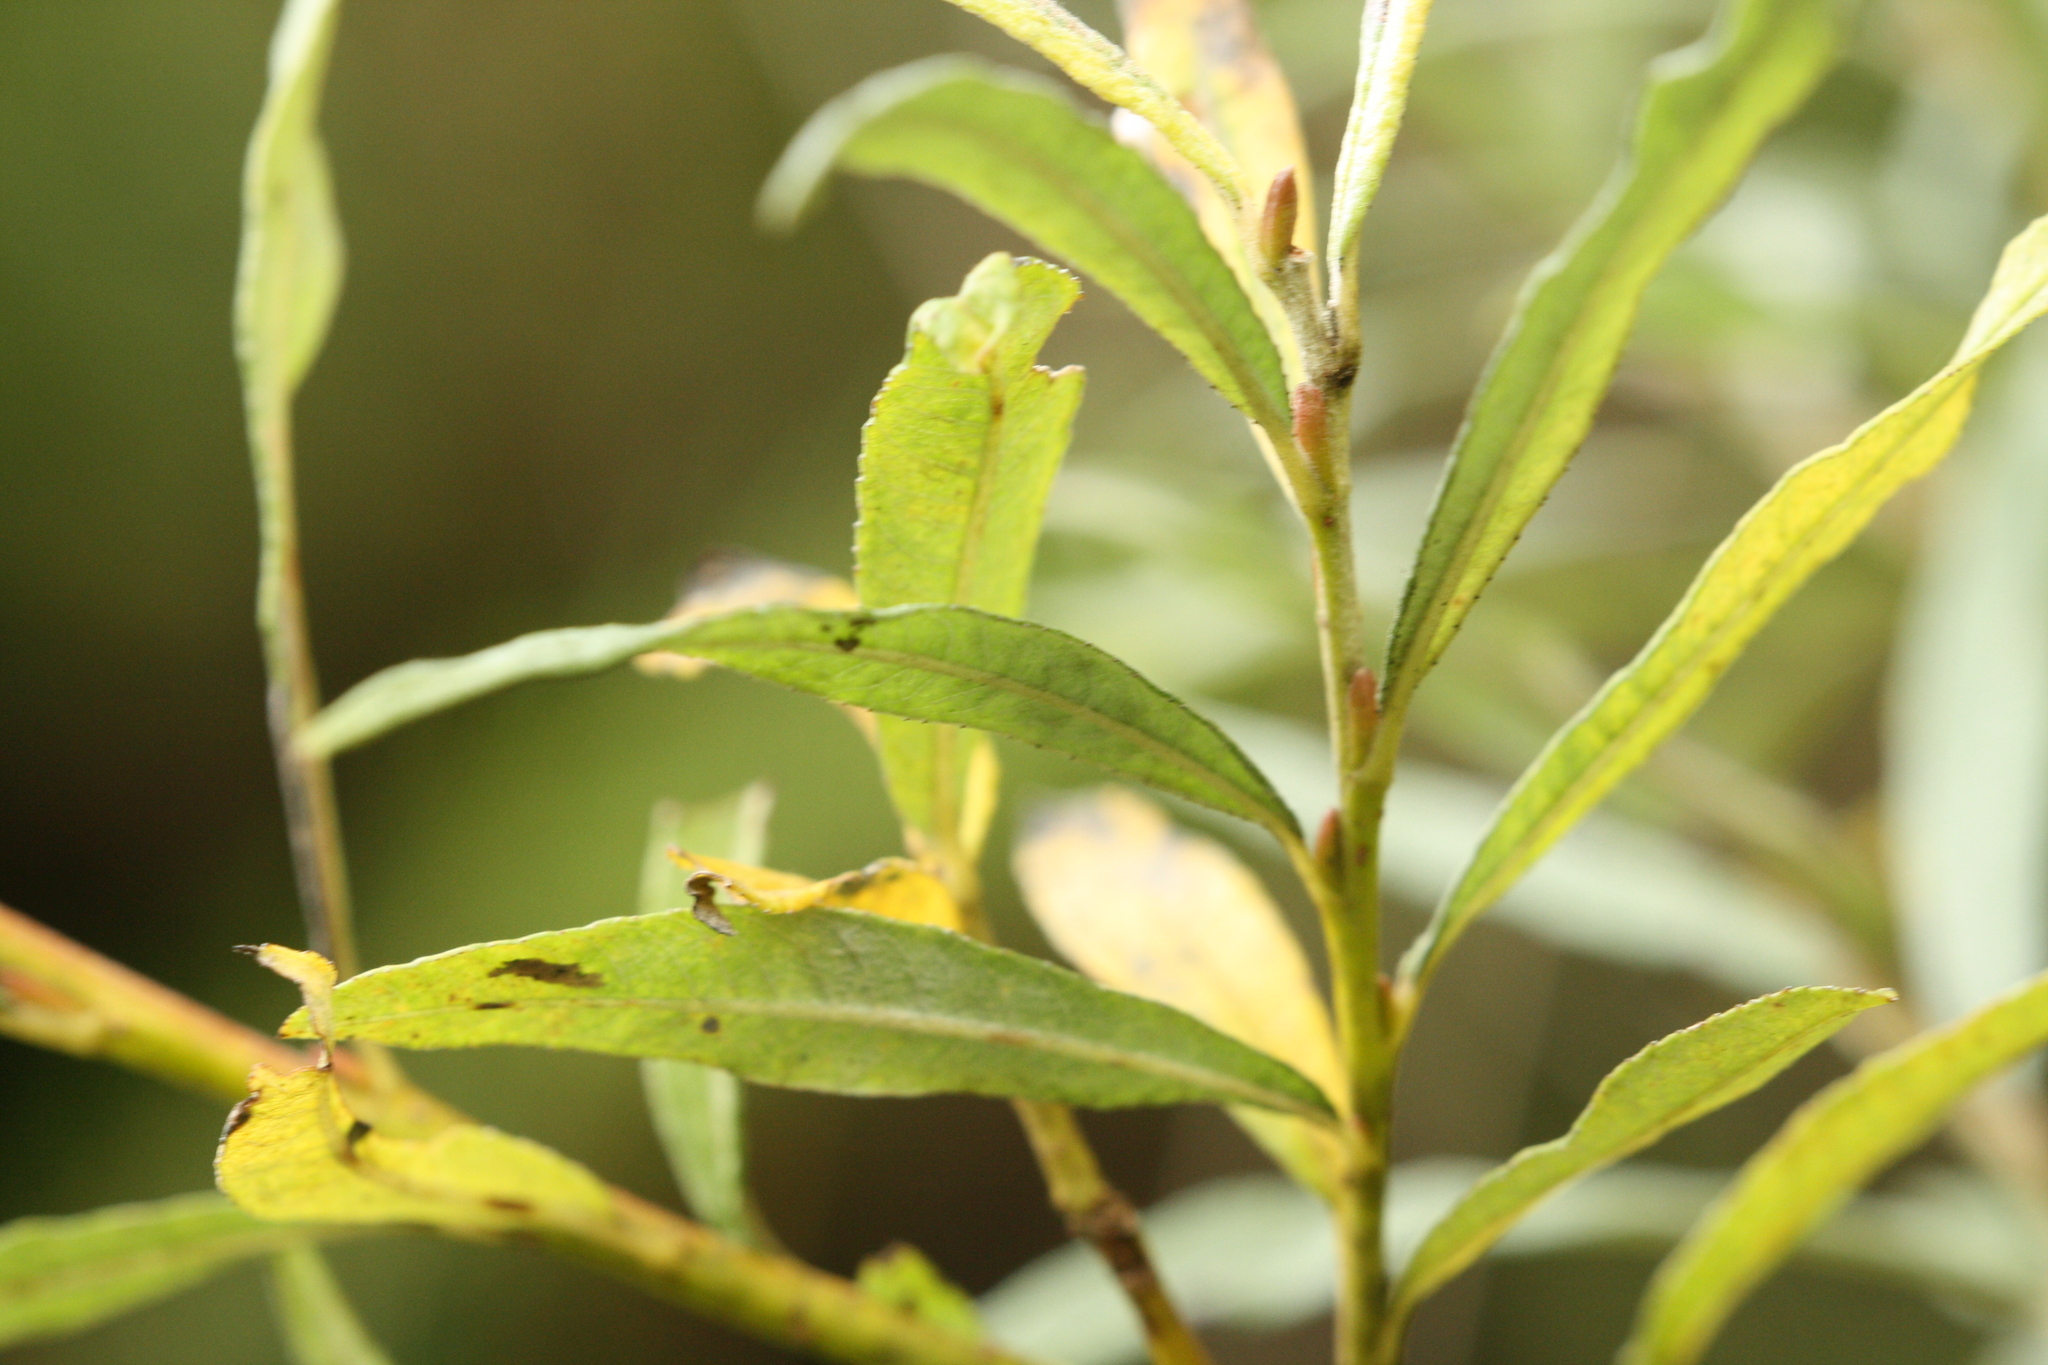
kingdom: Animalia
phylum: Arthropoda
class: Insecta
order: Hymenoptera
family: Tenthredinidae
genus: Euura
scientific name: Euura kriechbaumeri
